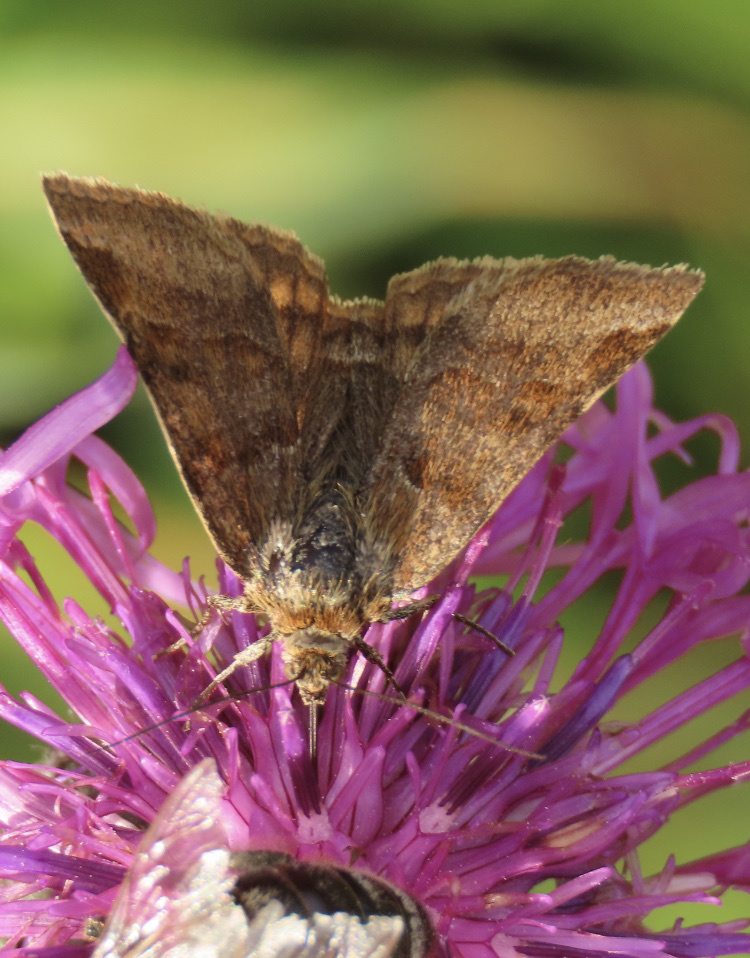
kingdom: Animalia
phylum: Arthropoda
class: Insecta
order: Lepidoptera
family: Erebidae
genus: Euclidia
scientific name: Euclidia glyphica
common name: Burnet companion
